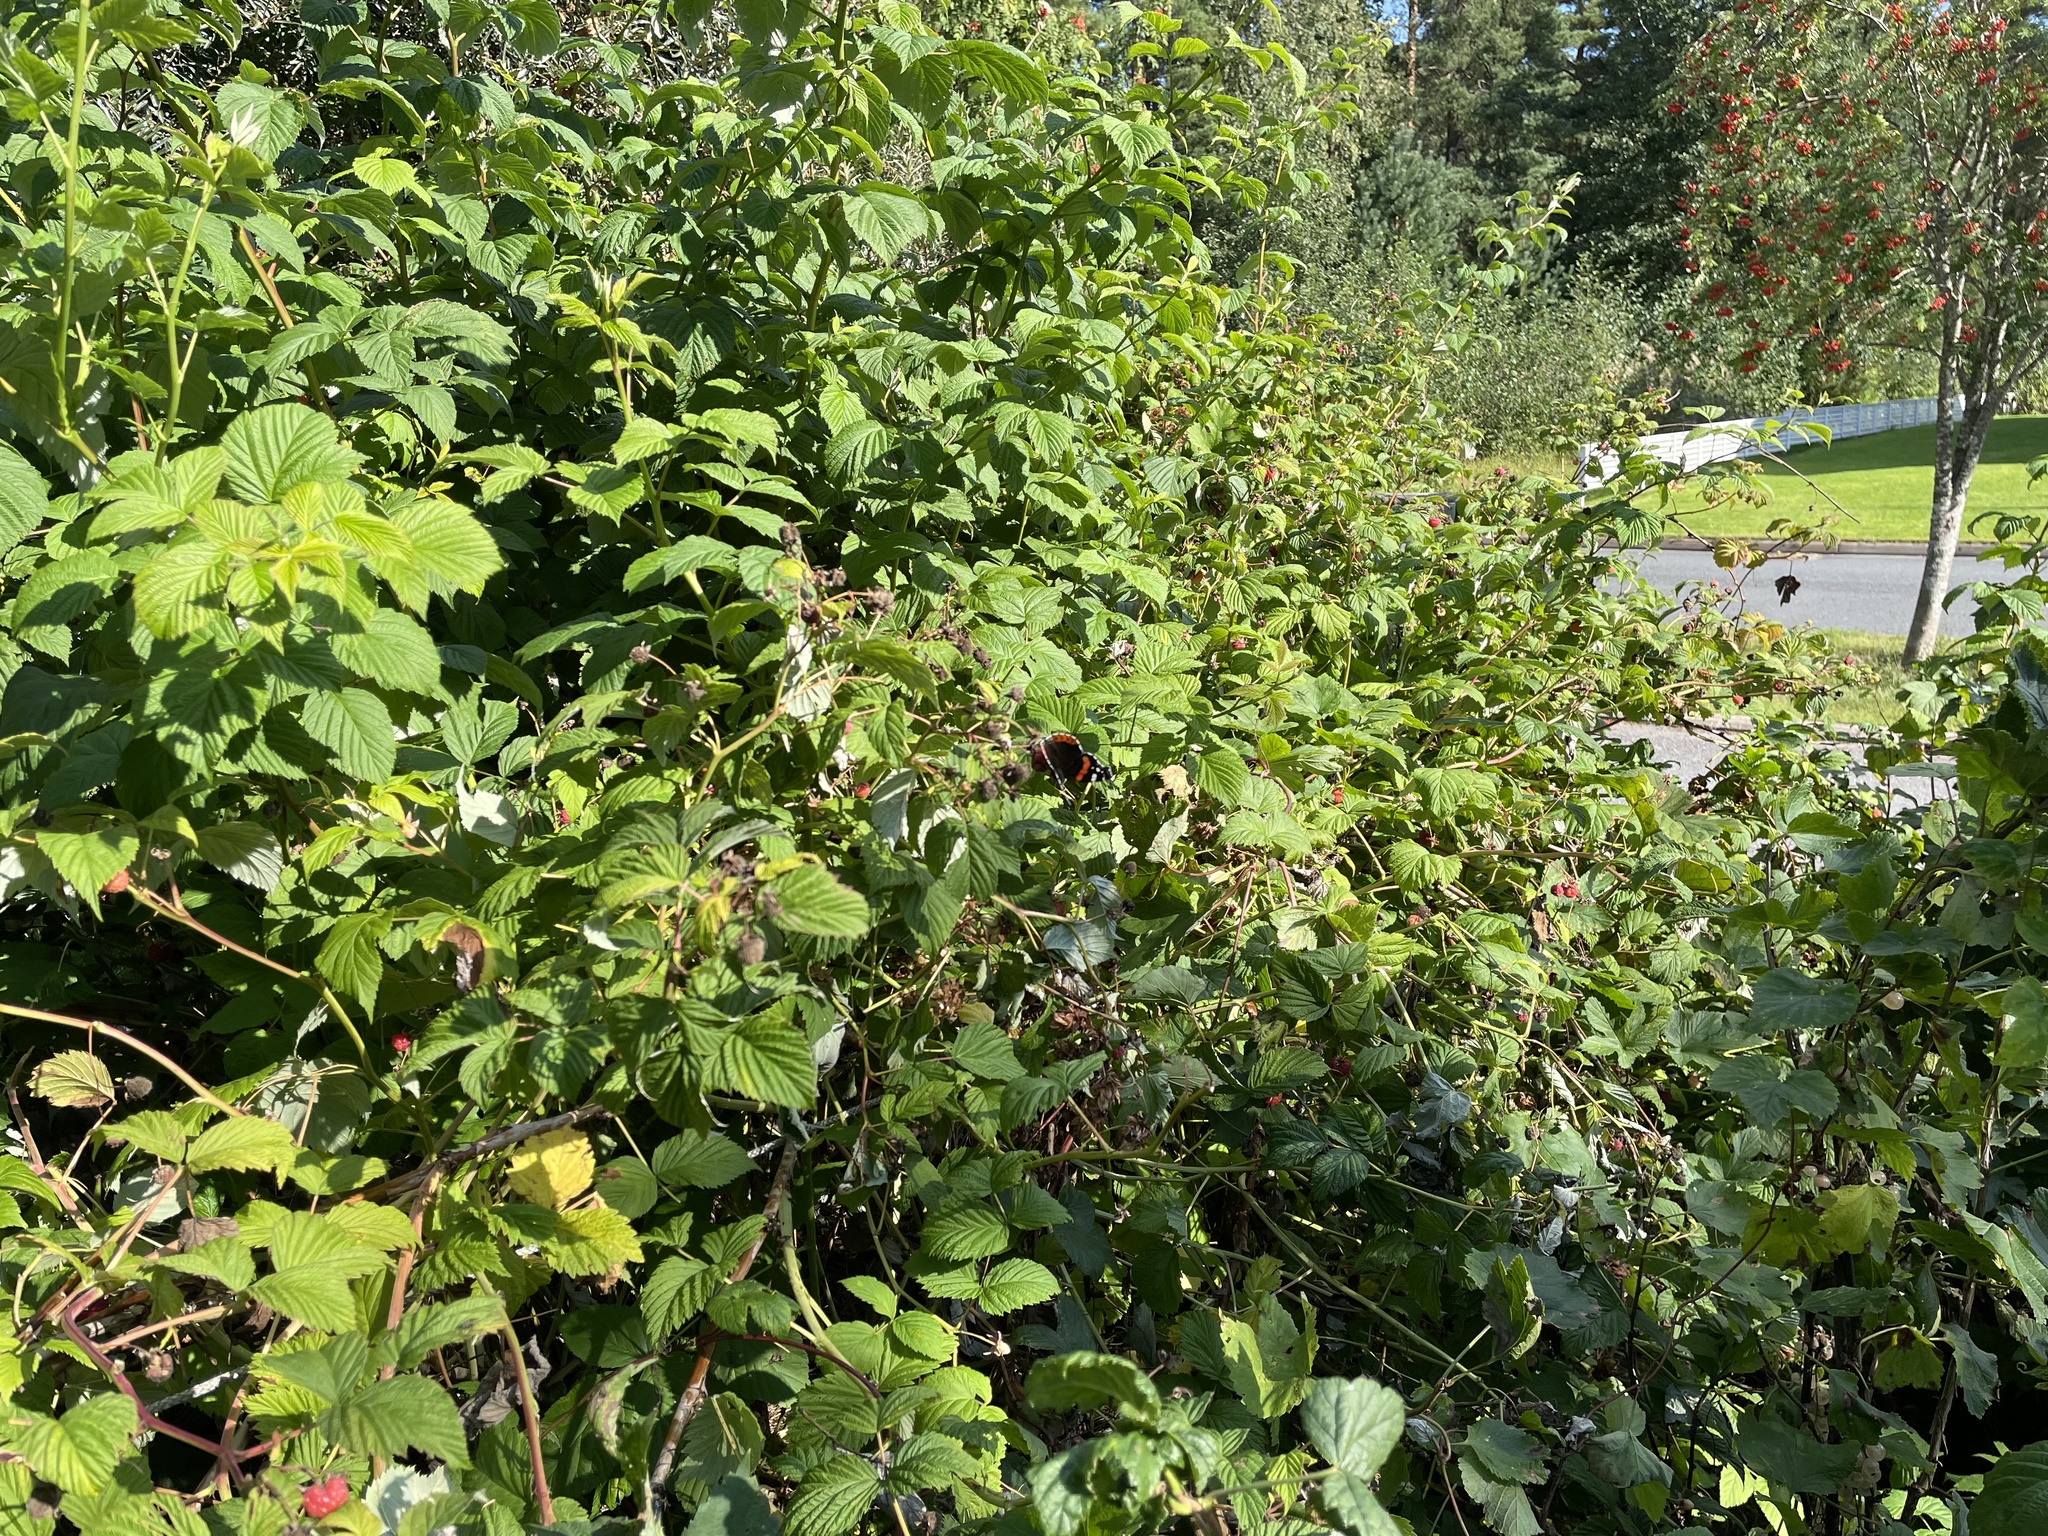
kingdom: Animalia
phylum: Arthropoda
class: Insecta
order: Lepidoptera
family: Nymphalidae
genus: Vanessa
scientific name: Vanessa atalanta
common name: Red admiral
